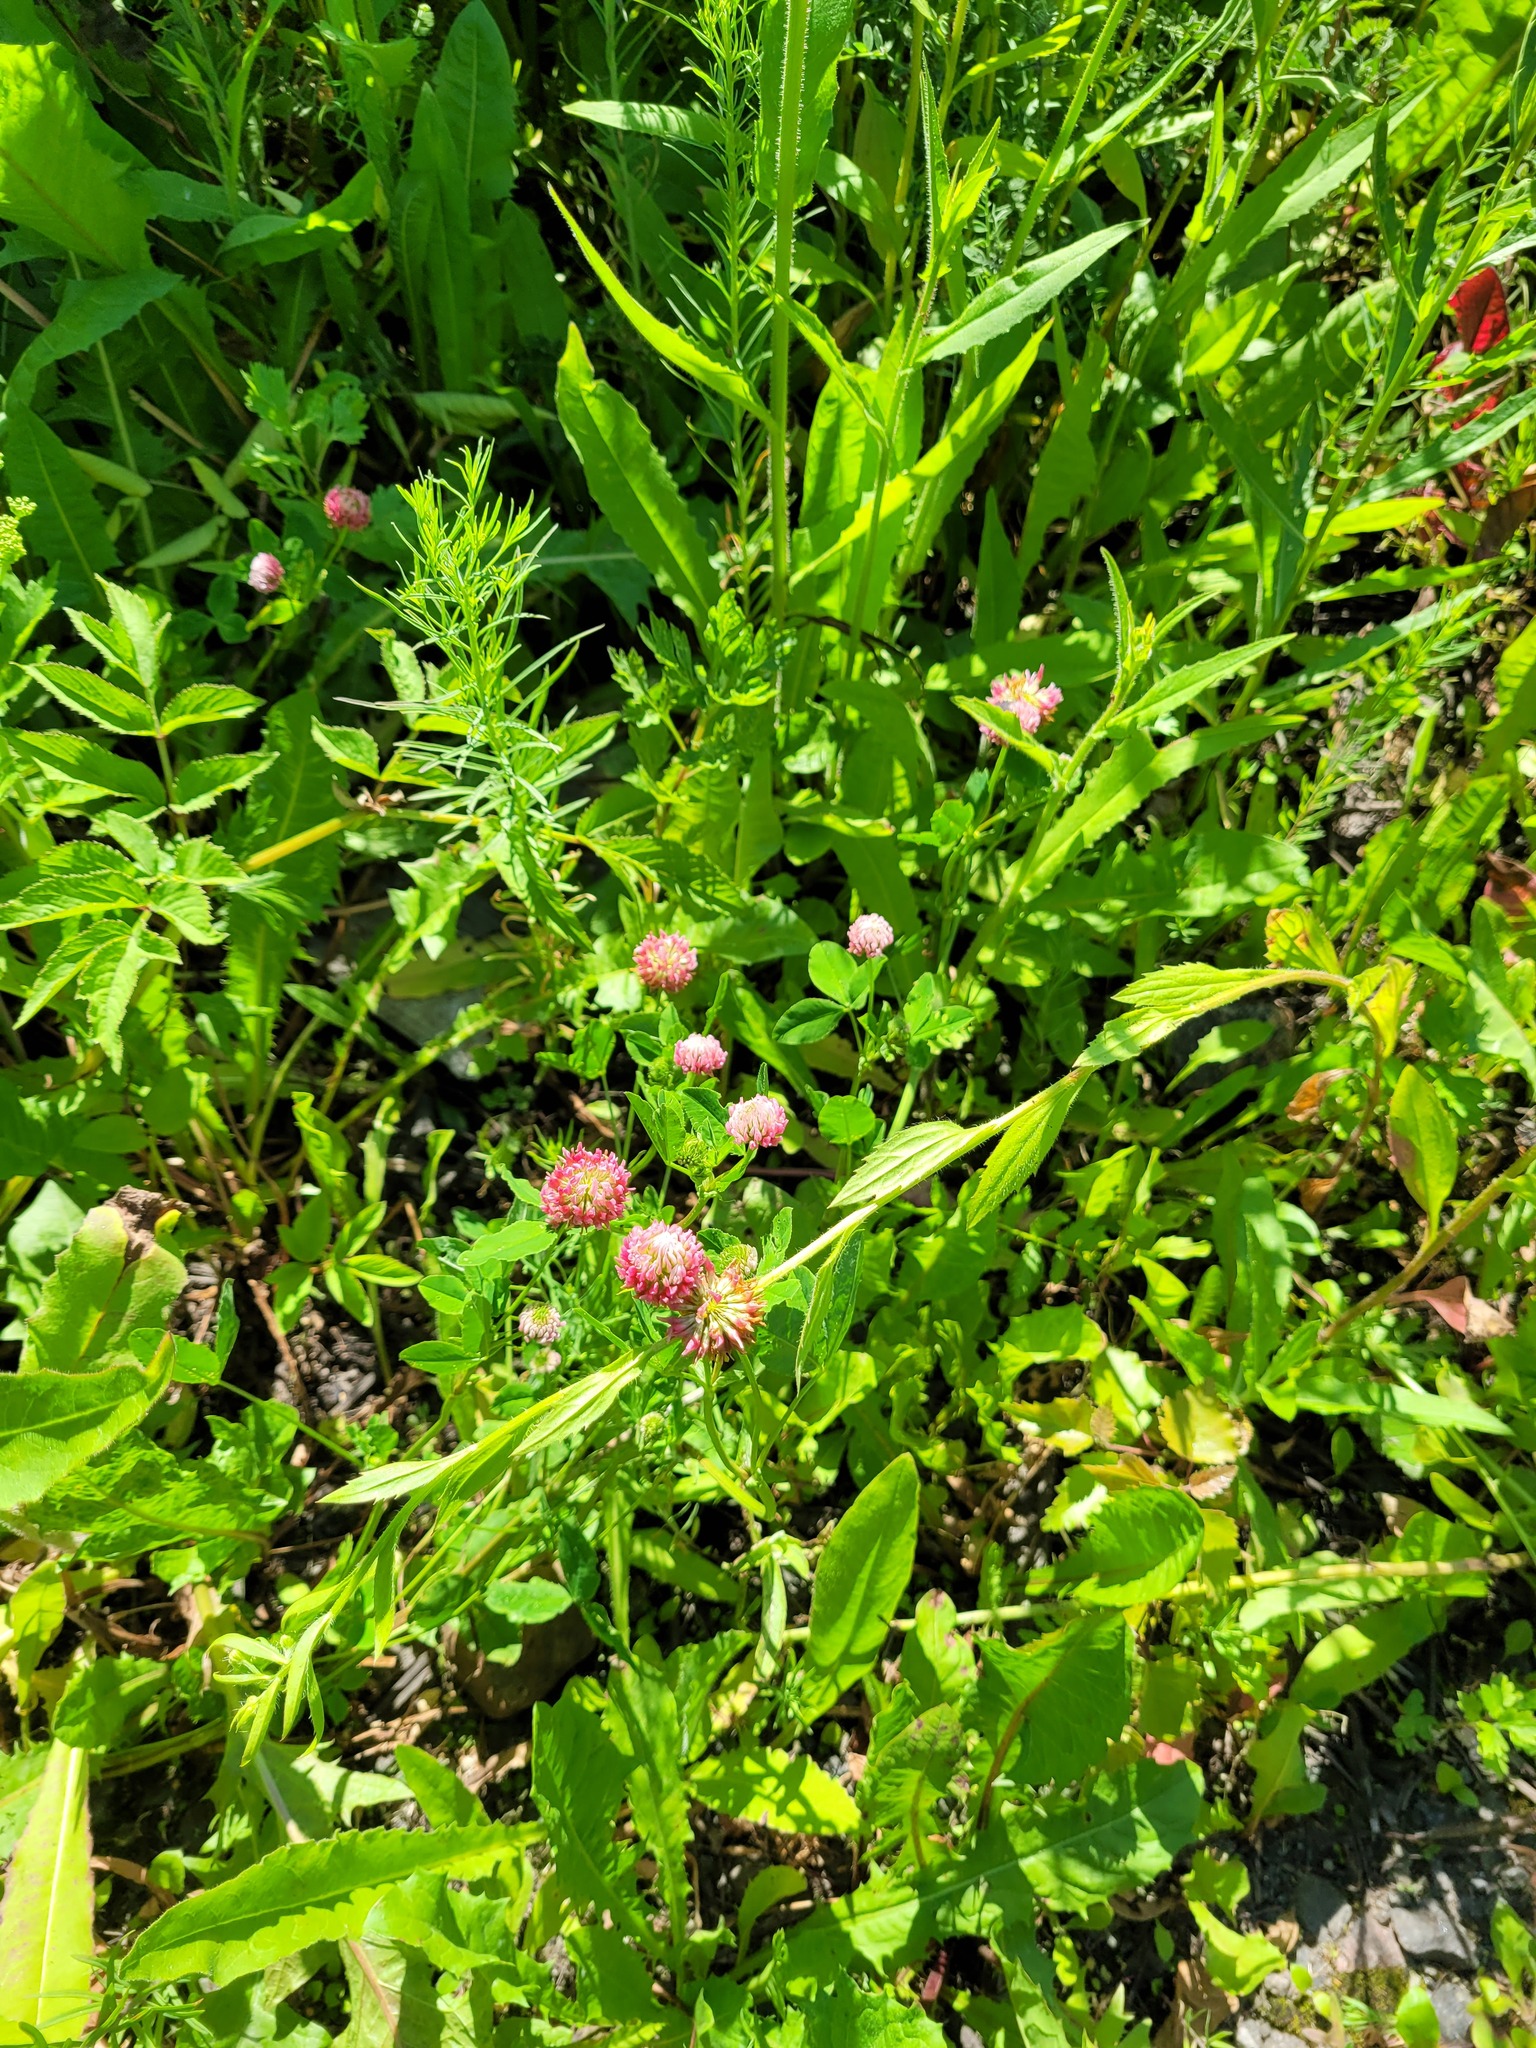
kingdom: Plantae
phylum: Tracheophyta
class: Magnoliopsida
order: Fabales
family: Fabaceae
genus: Trifolium
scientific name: Trifolium hybridum
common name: Alsike clover
